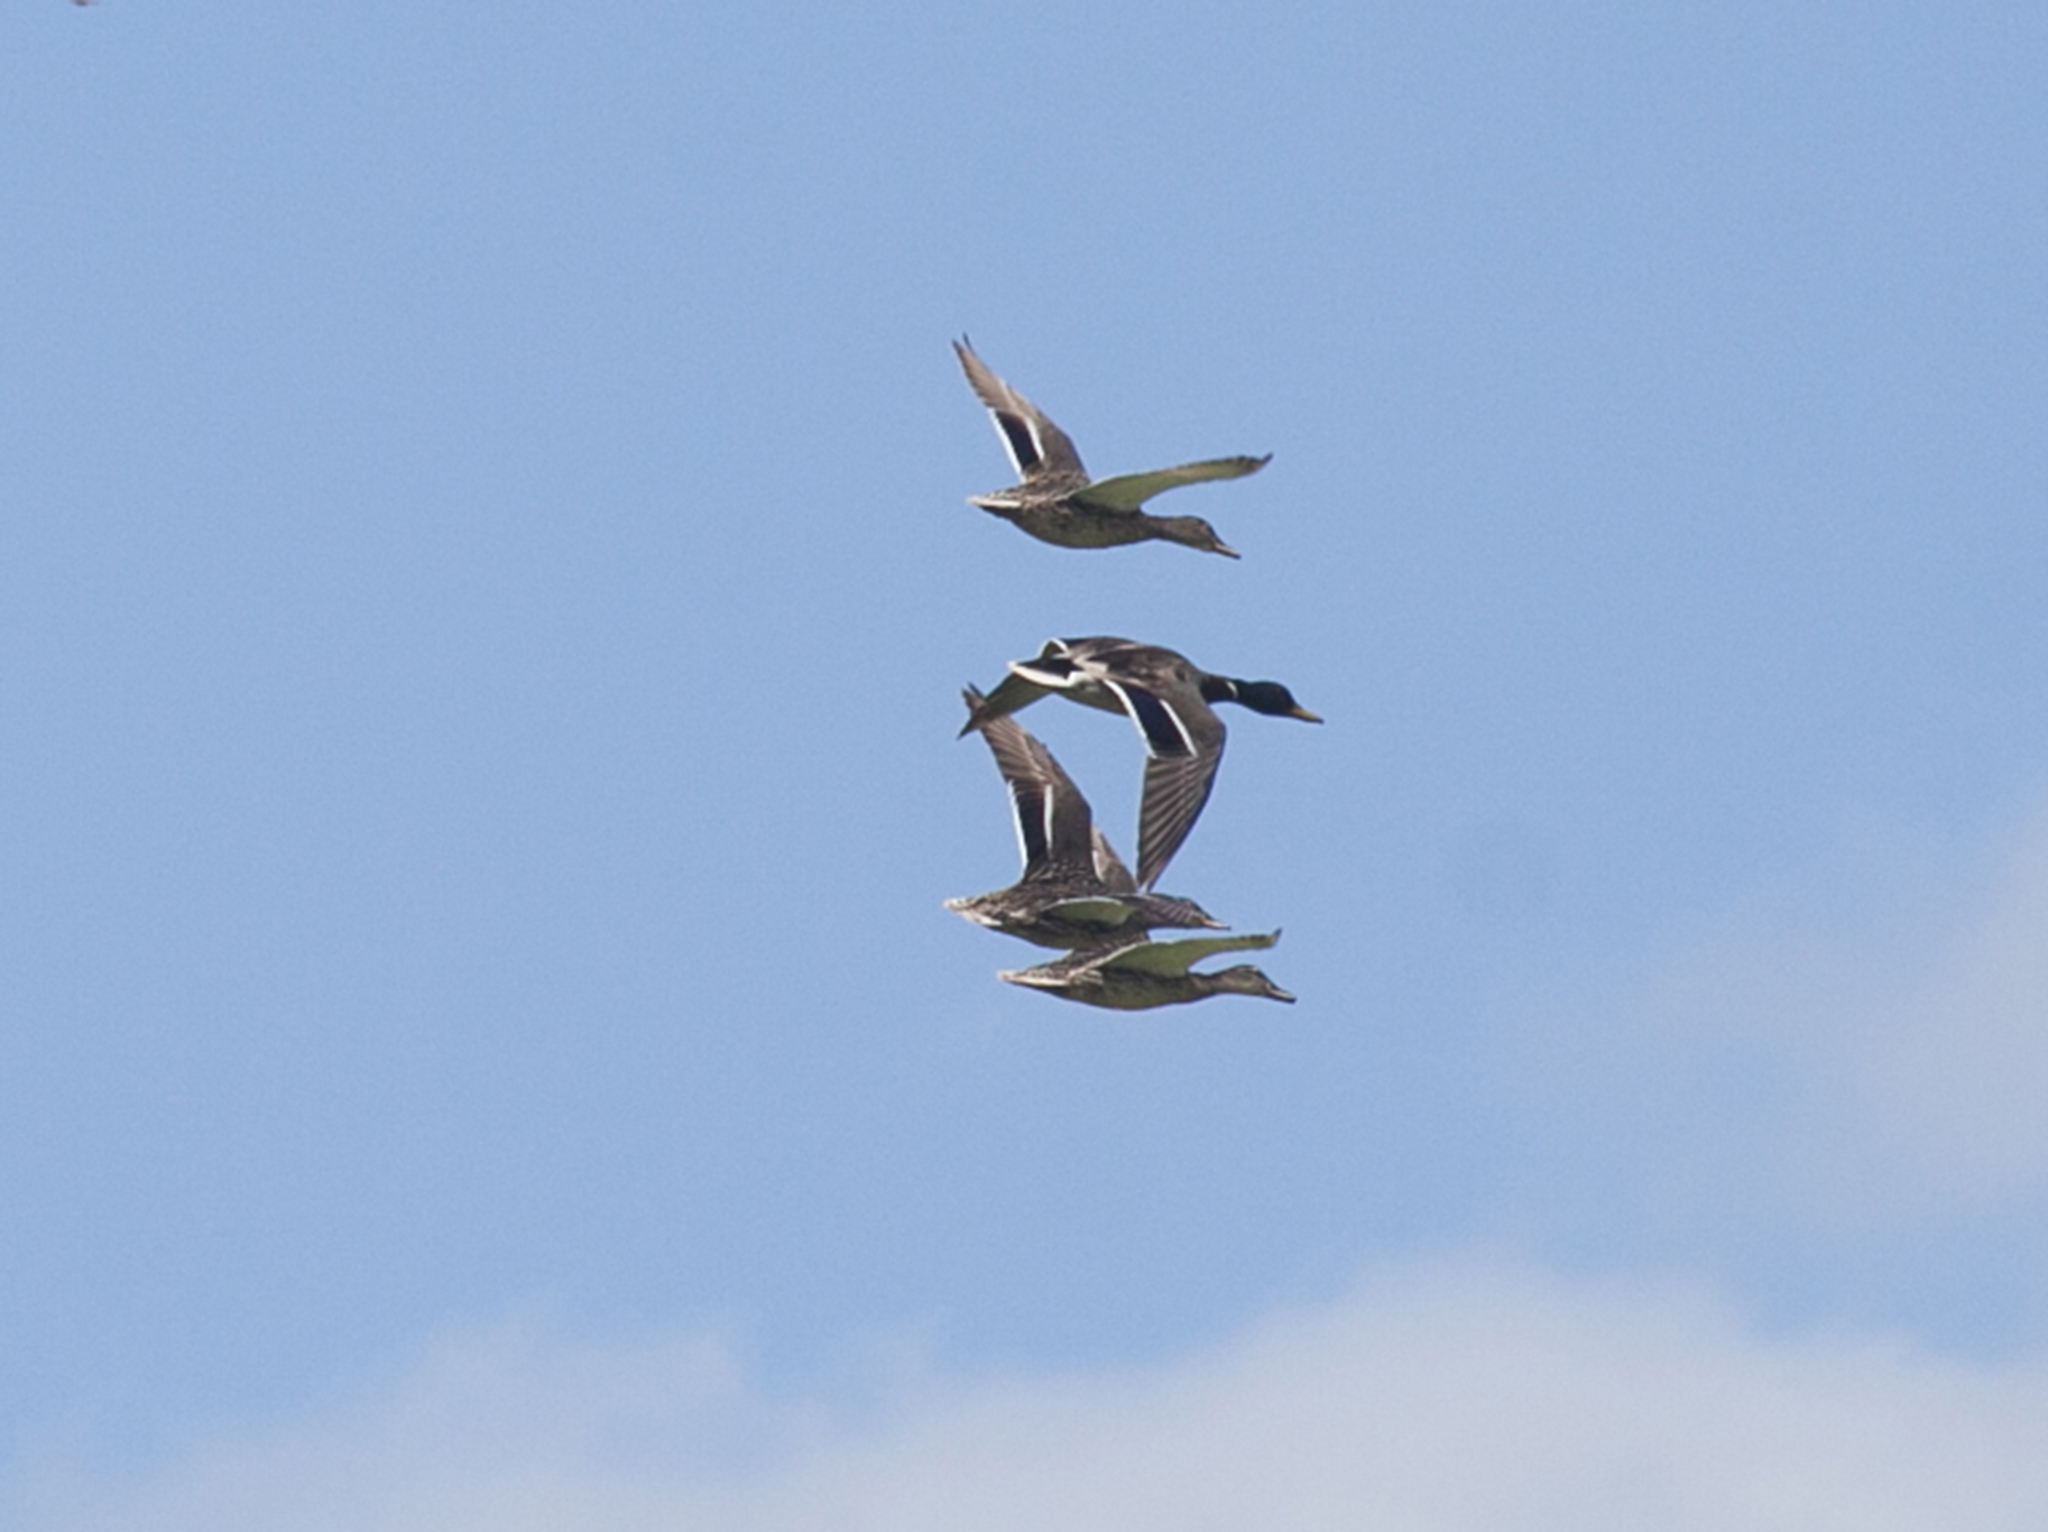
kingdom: Animalia
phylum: Chordata
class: Aves
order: Anseriformes
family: Anatidae
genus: Anas
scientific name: Anas platyrhynchos
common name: Mallard
